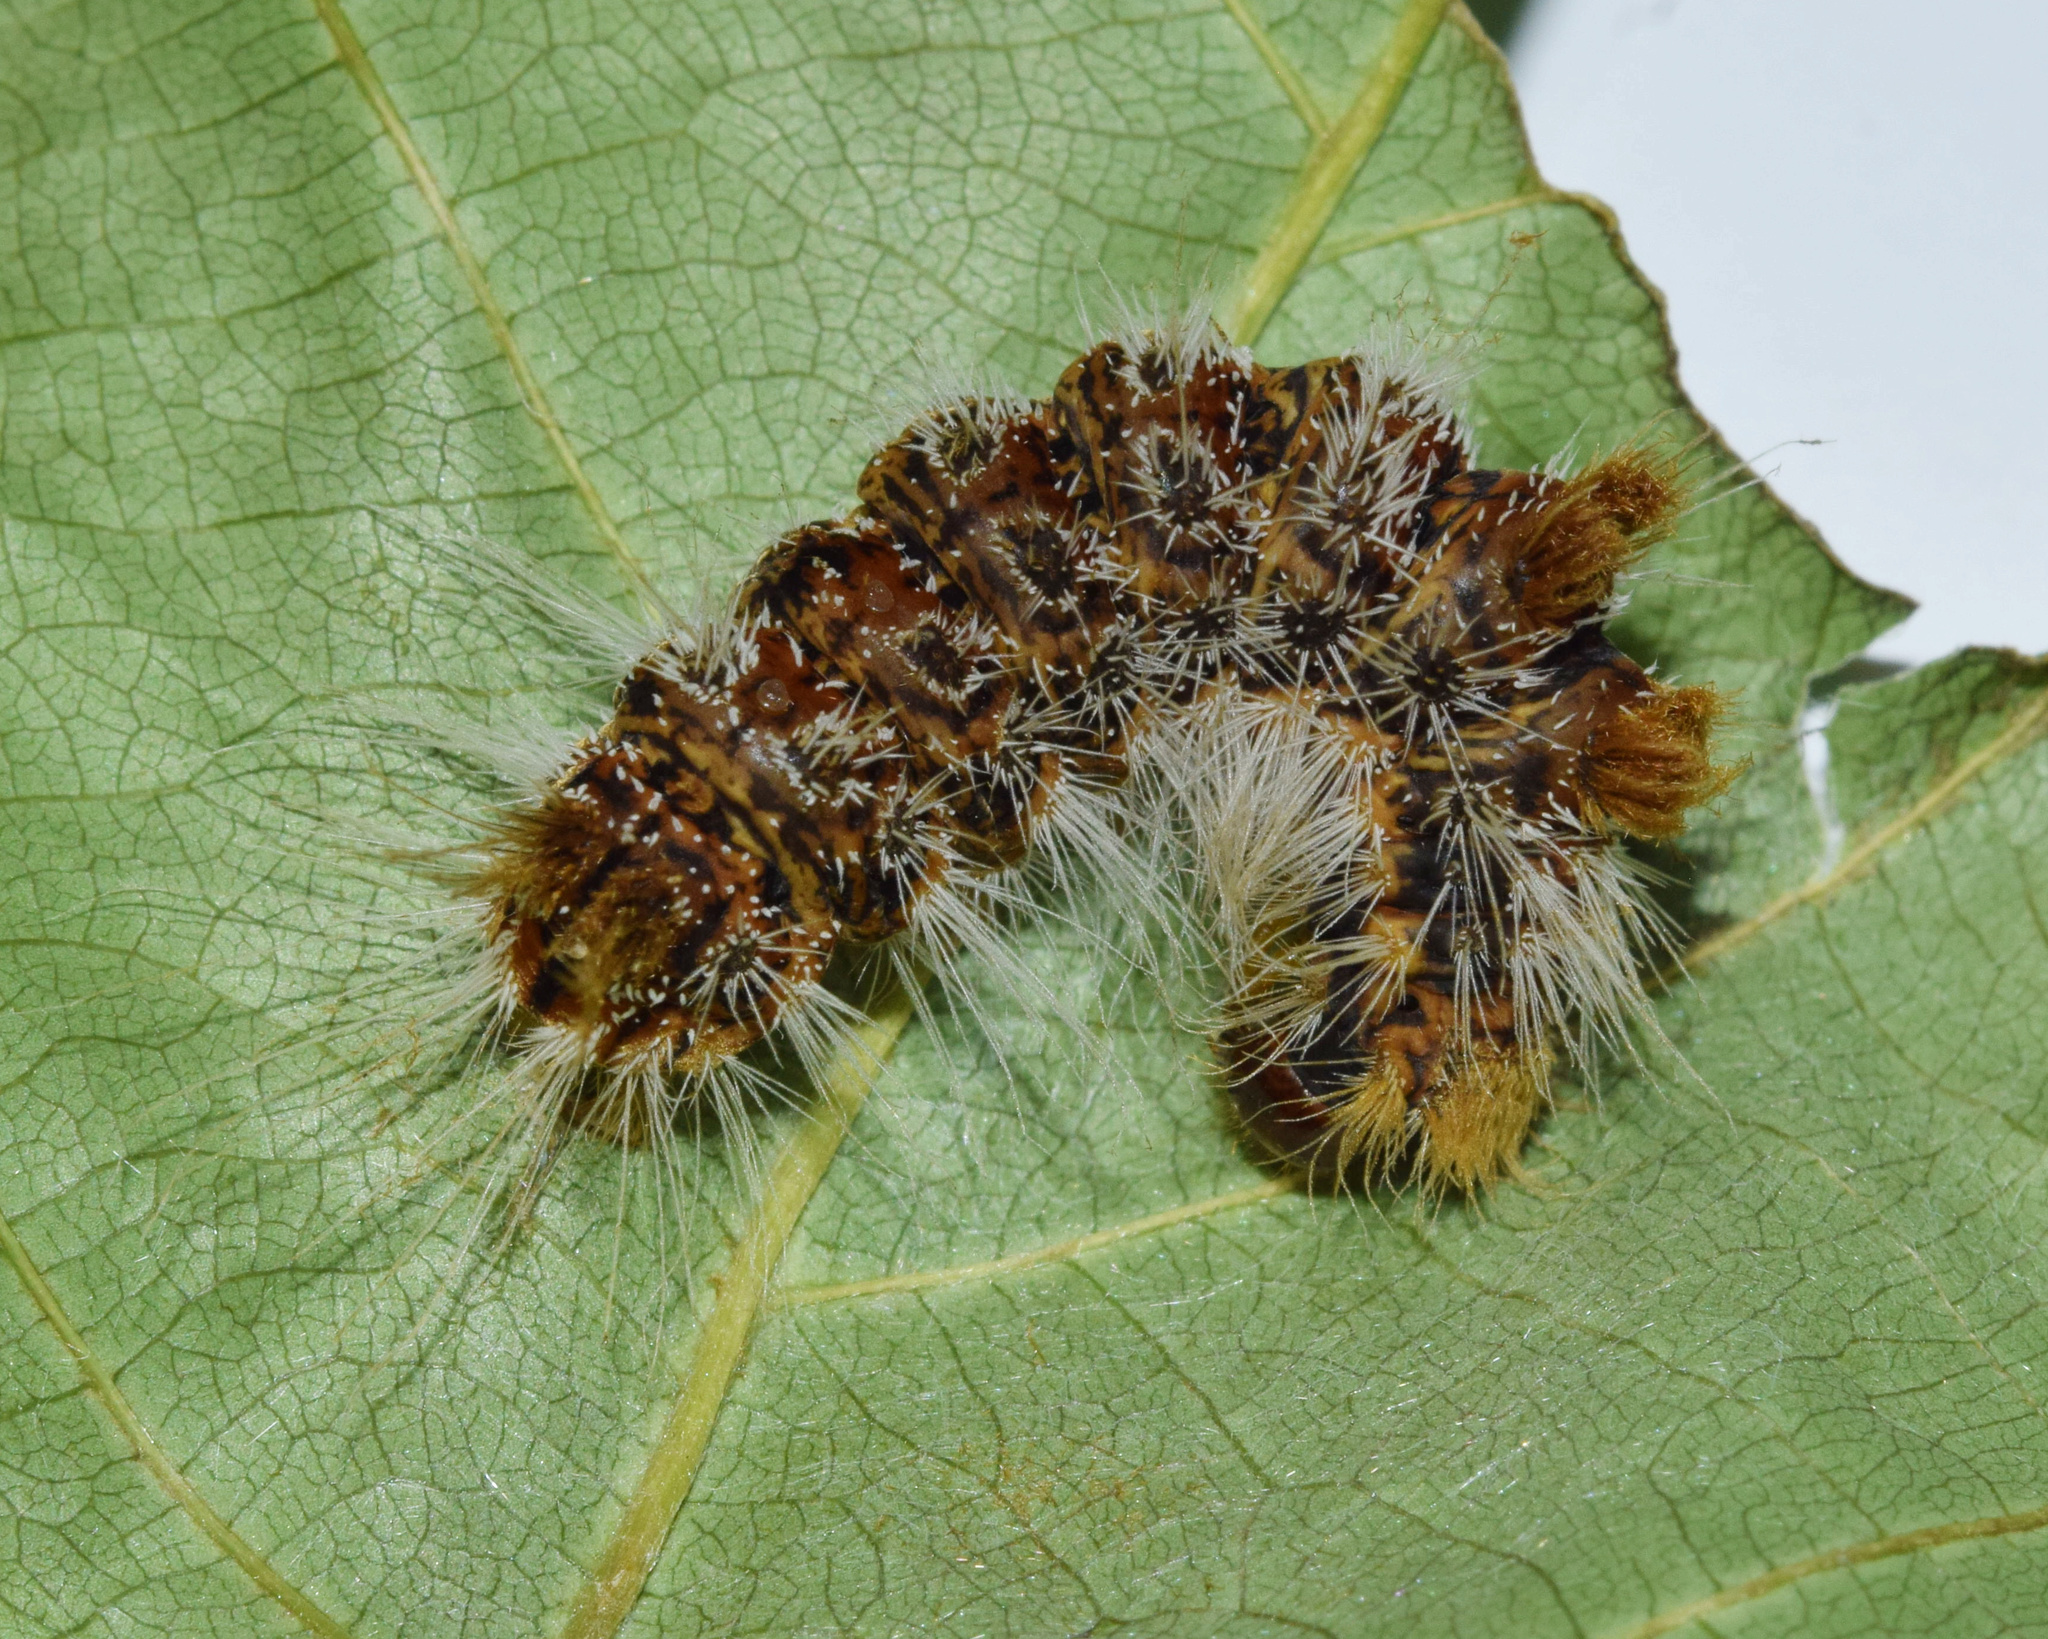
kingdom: Animalia
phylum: Arthropoda
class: Insecta
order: Lepidoptera
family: Erebidae
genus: Euproctis
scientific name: Euproctis rufopunctata
